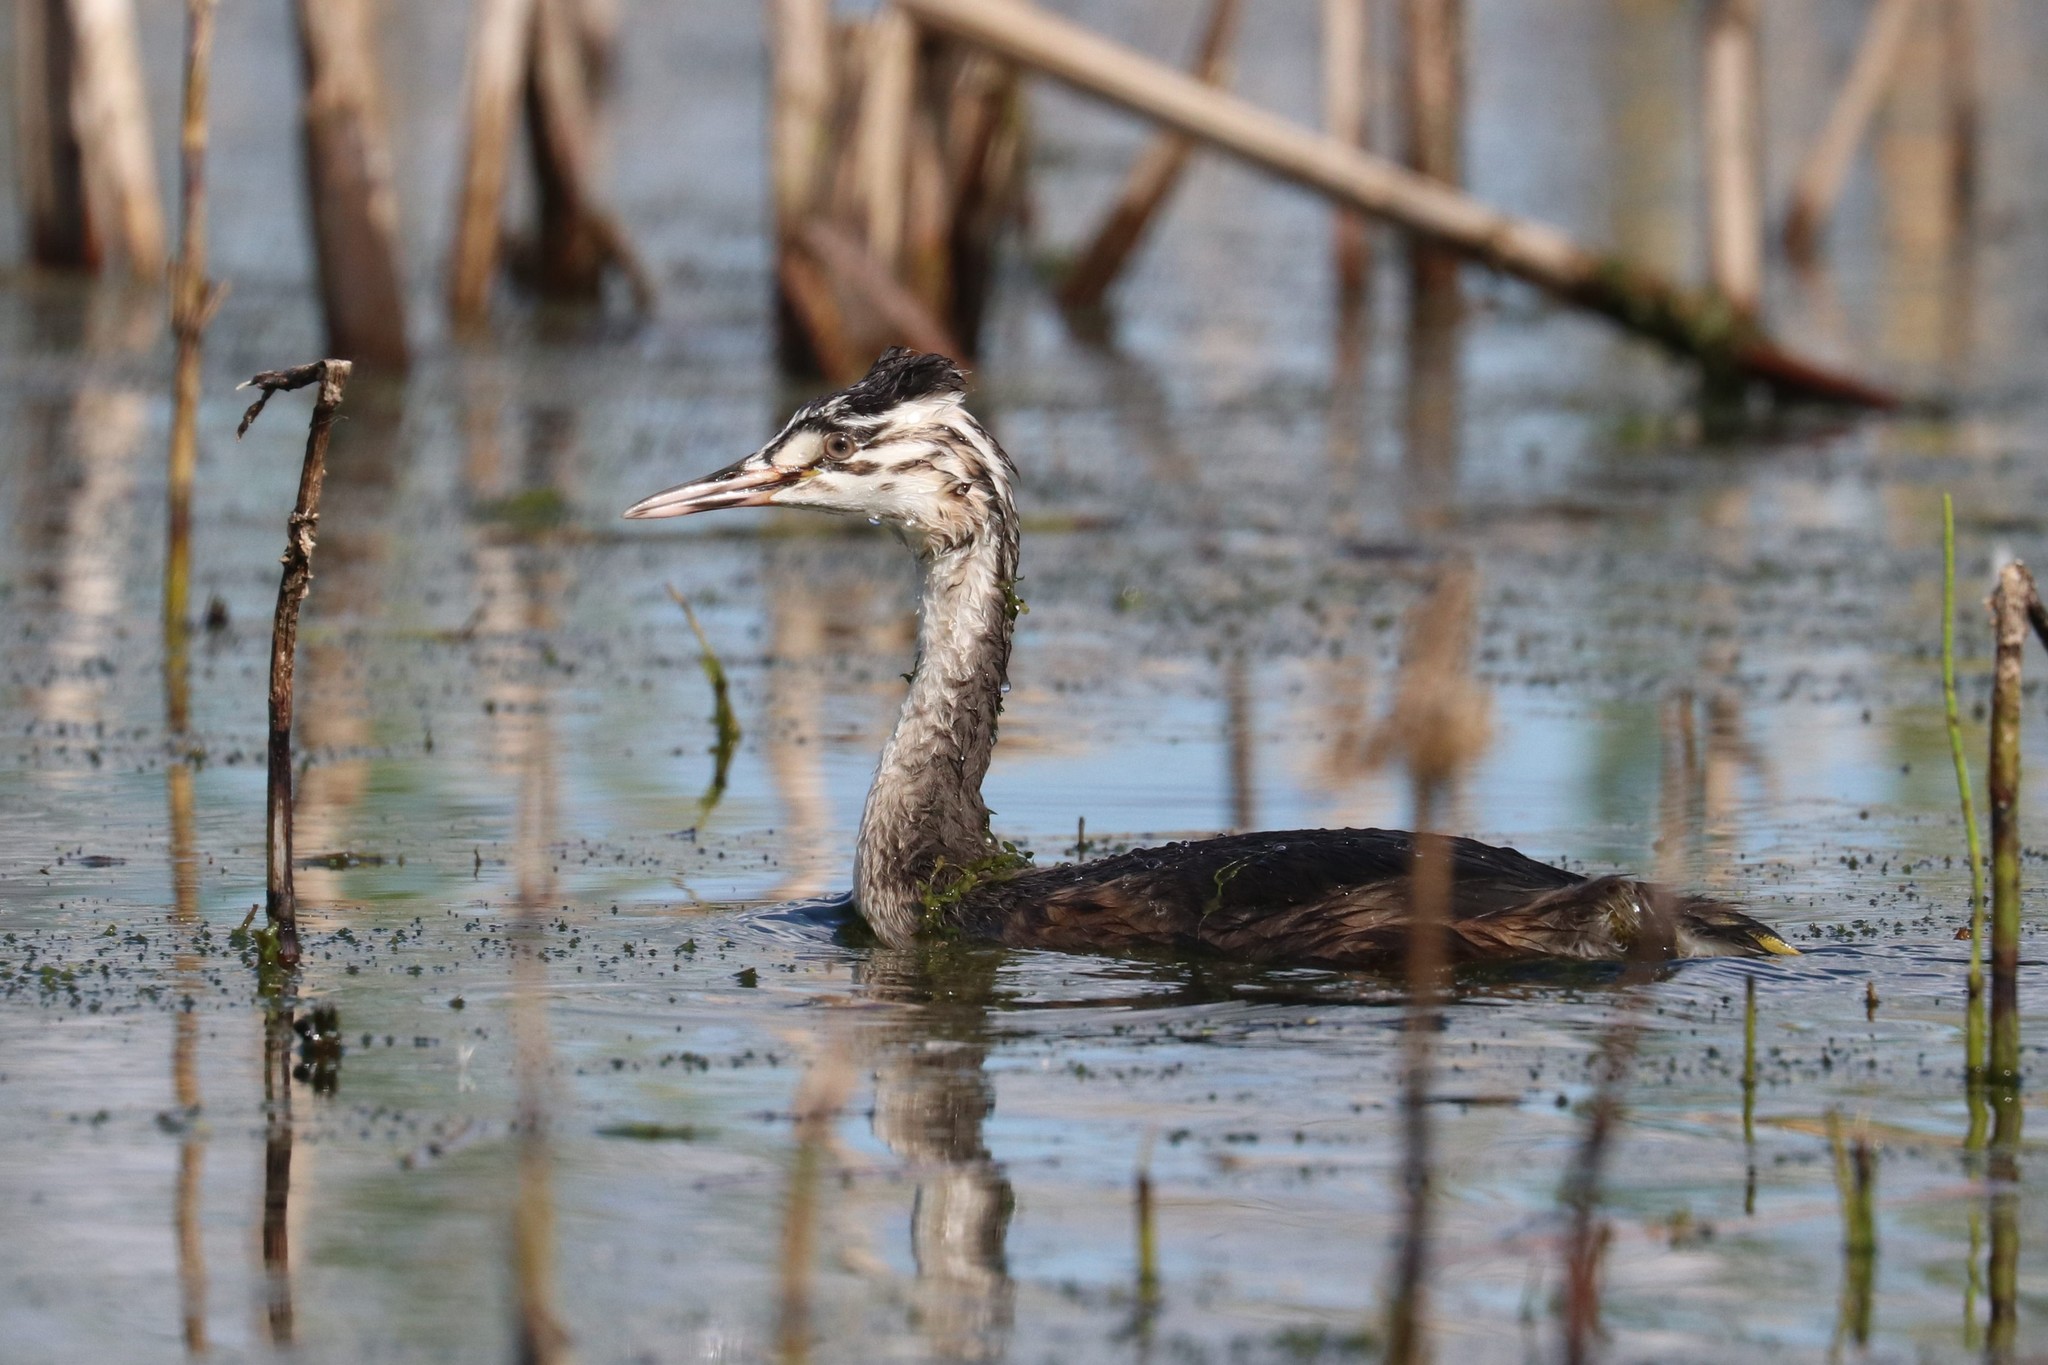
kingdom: Animalia
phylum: Chordata
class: Aves
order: Podicipediformes
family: Podicipedidae
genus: Podiceps
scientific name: Podiceps cristatus
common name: Great crested grebe
